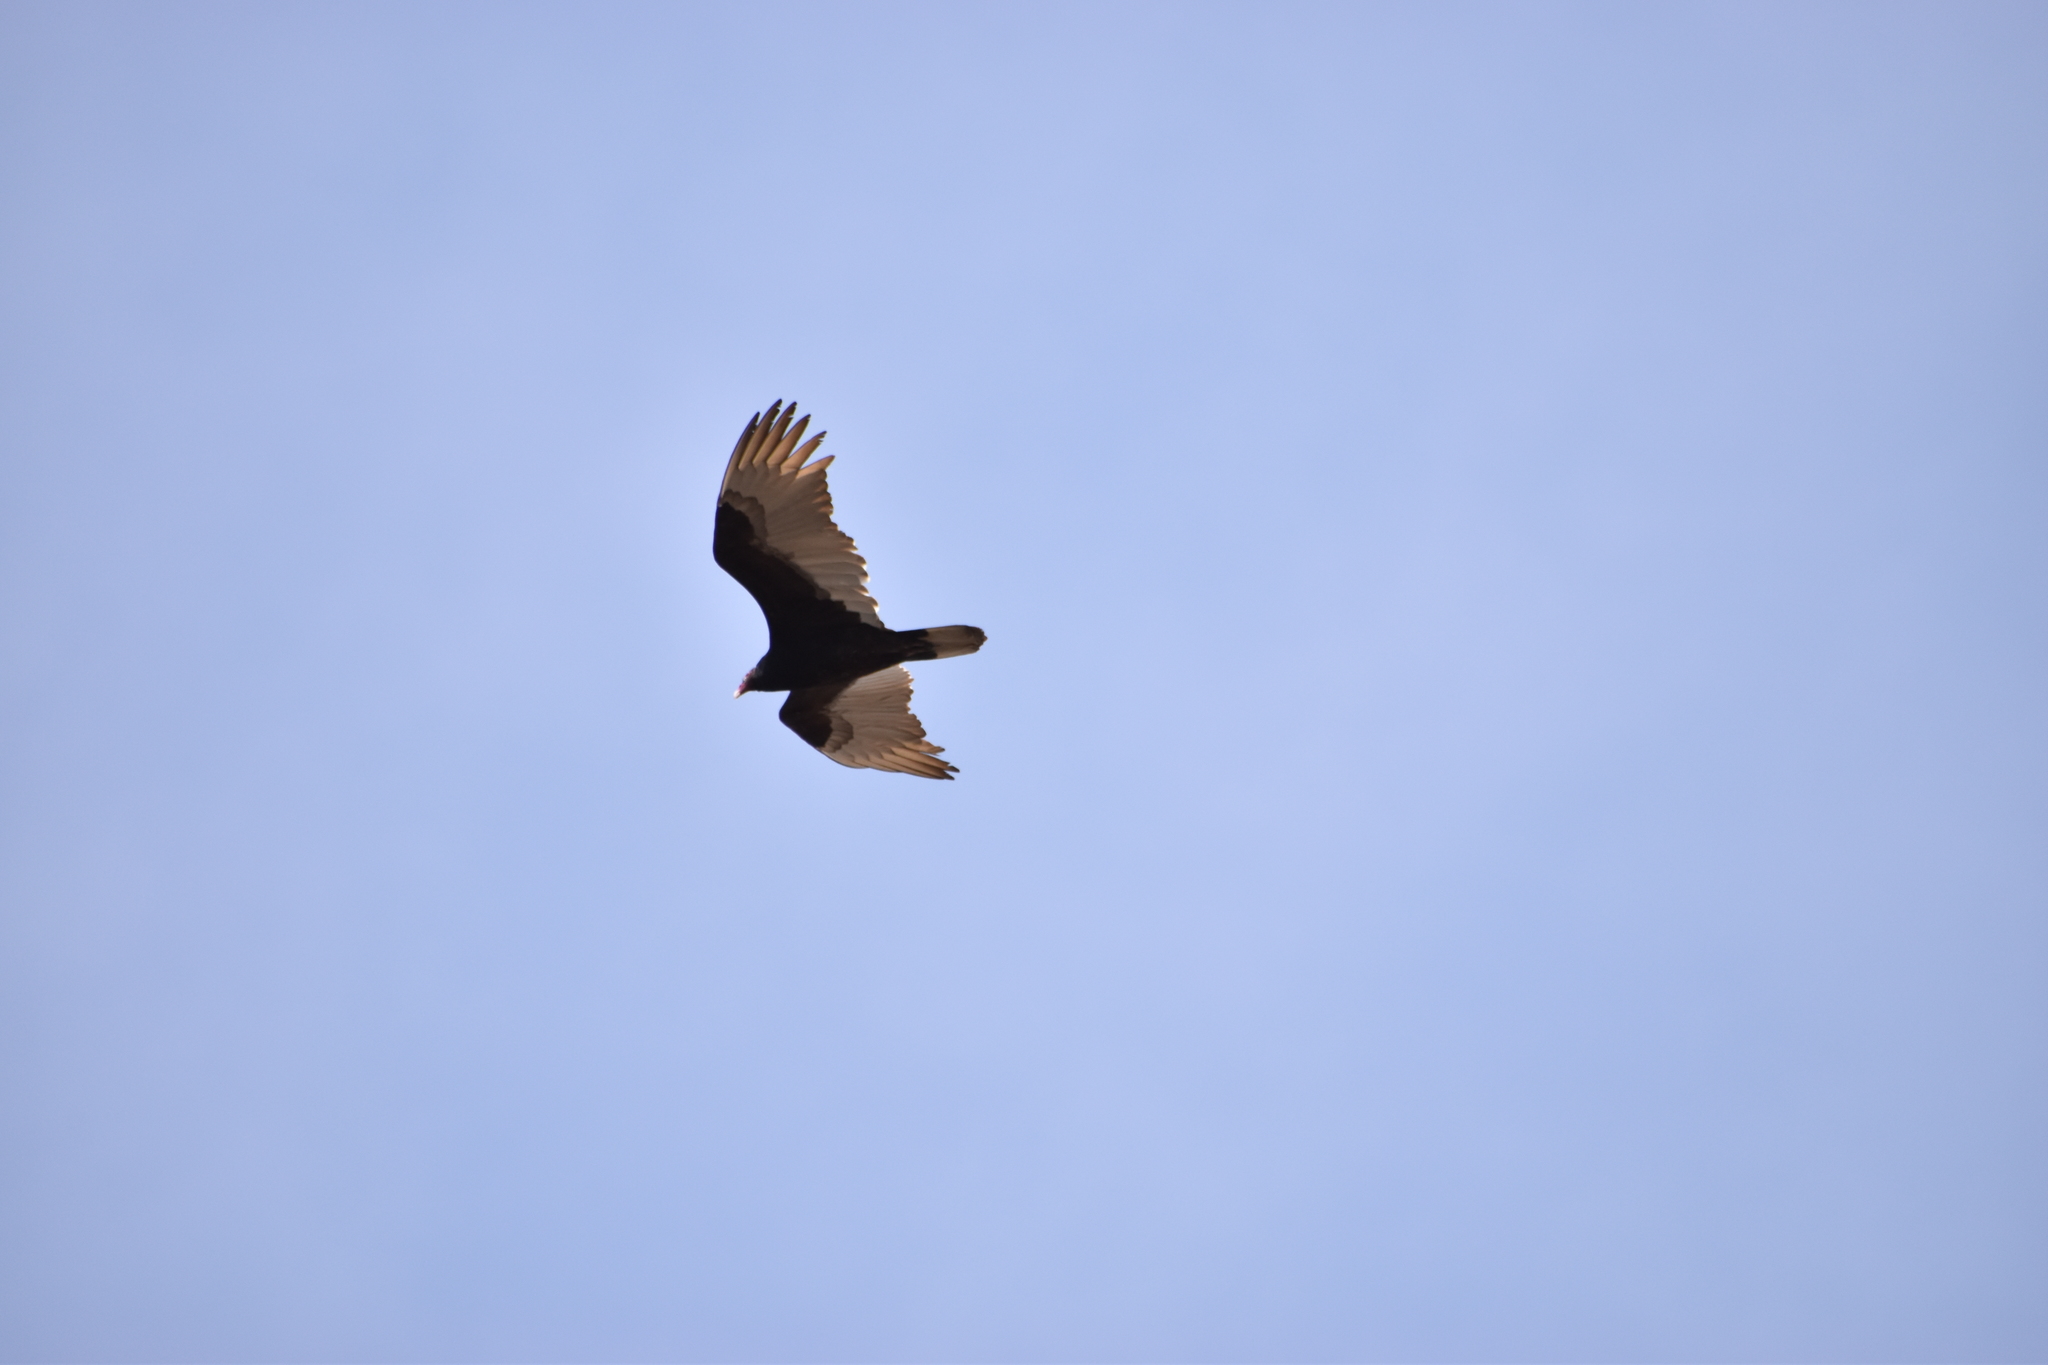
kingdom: Animalia
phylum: Chordata
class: Aves
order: Accipitriformes
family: Cathartidae
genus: Cathartes
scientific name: Cathartes aura
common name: Turkey vulture
